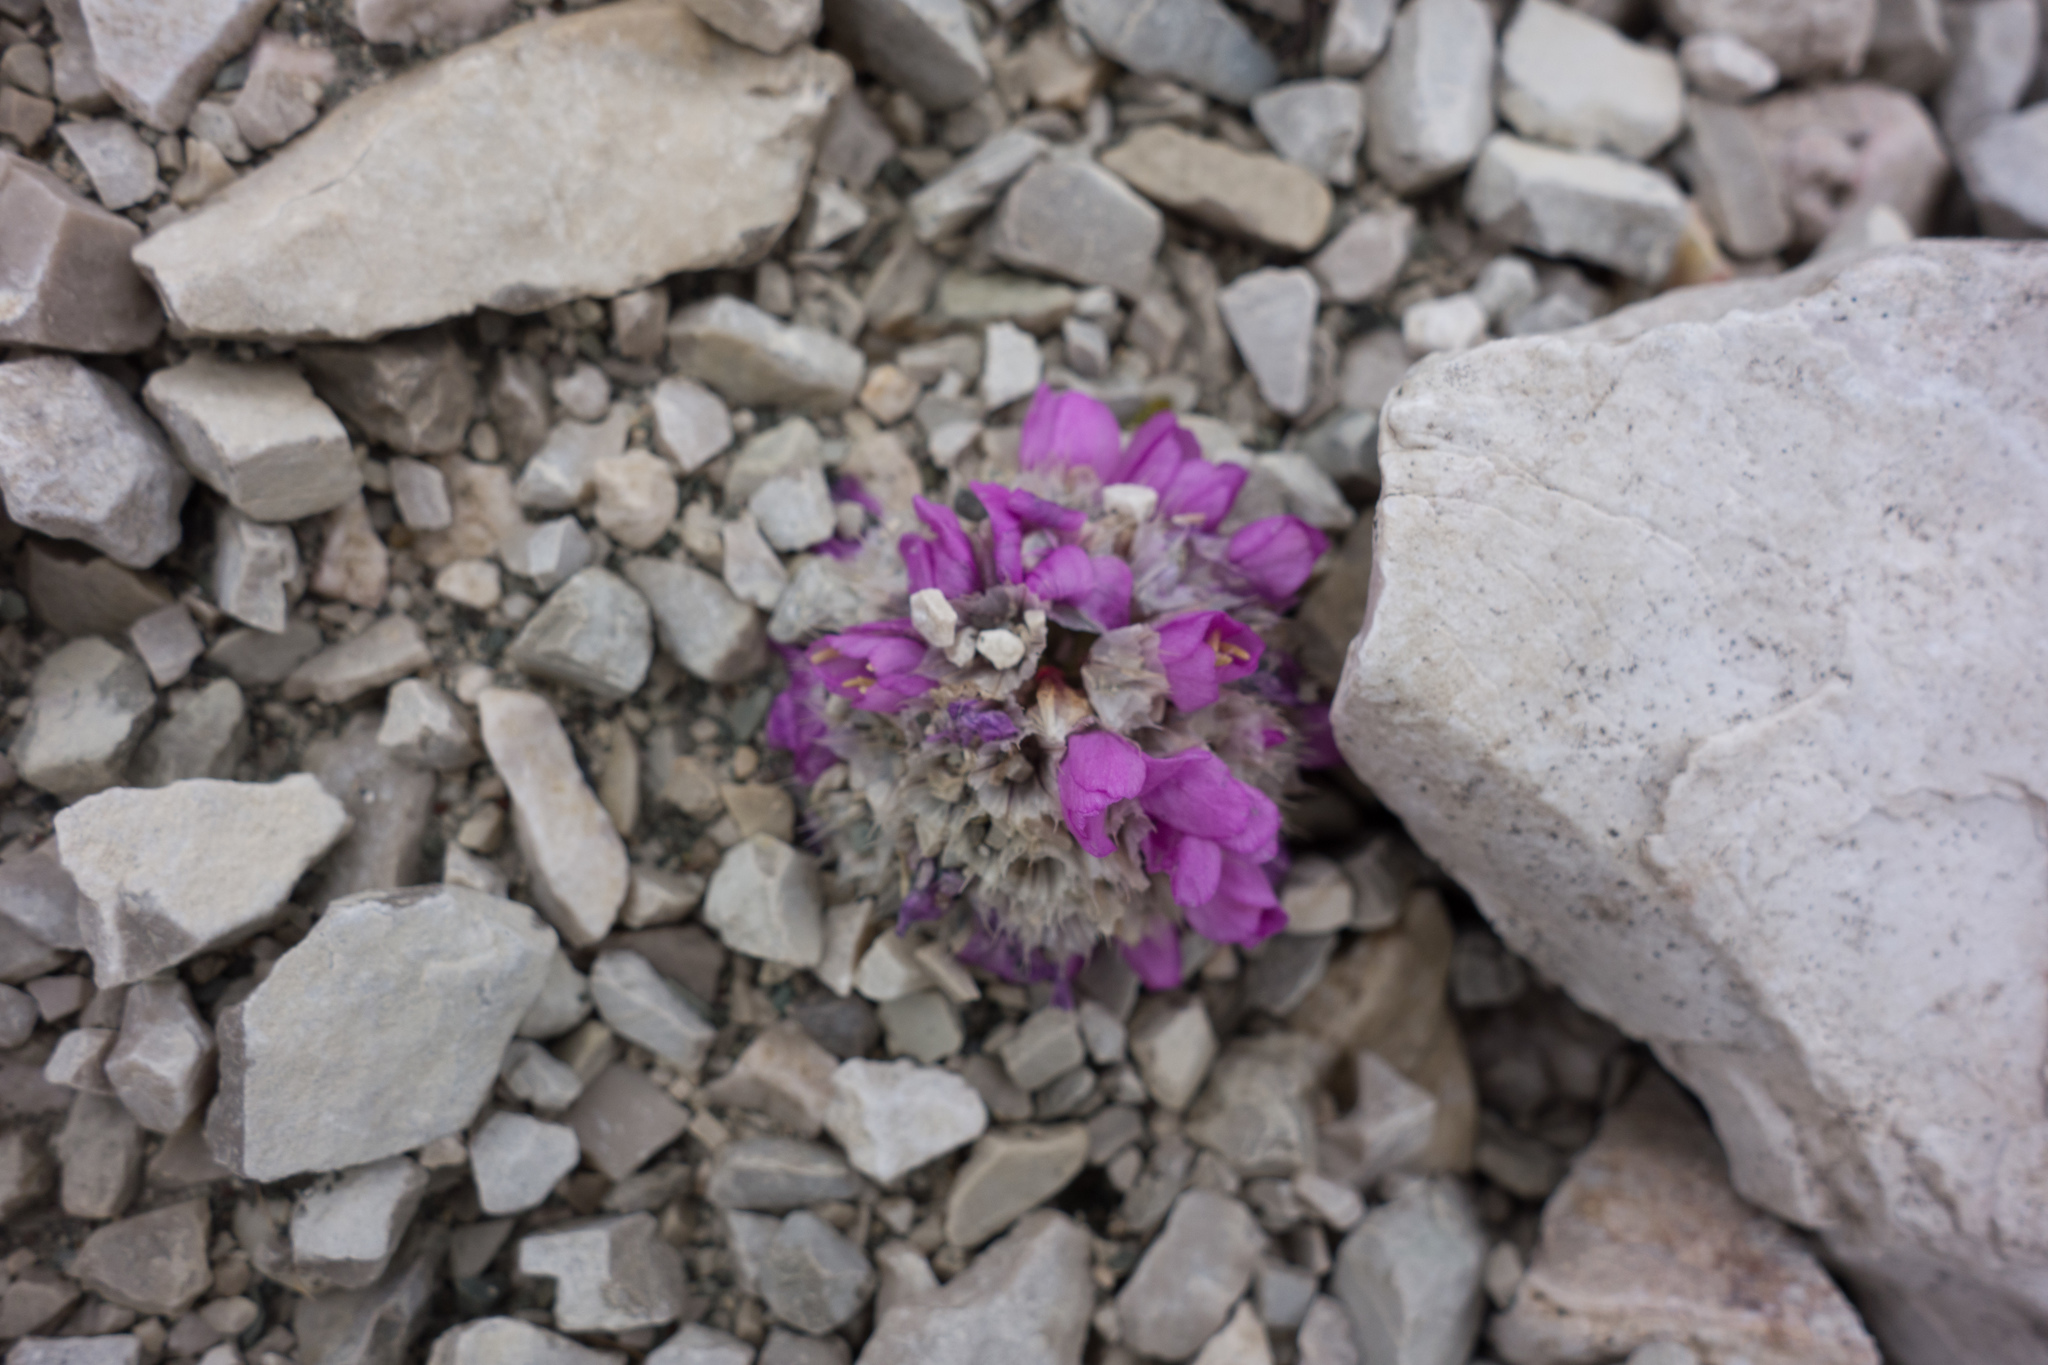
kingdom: Plantae
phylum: Tracheophyta
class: Magnoliopsida
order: Caryophyllales
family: Plumbaginaceae
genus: Armeria
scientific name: Armeria alpina
